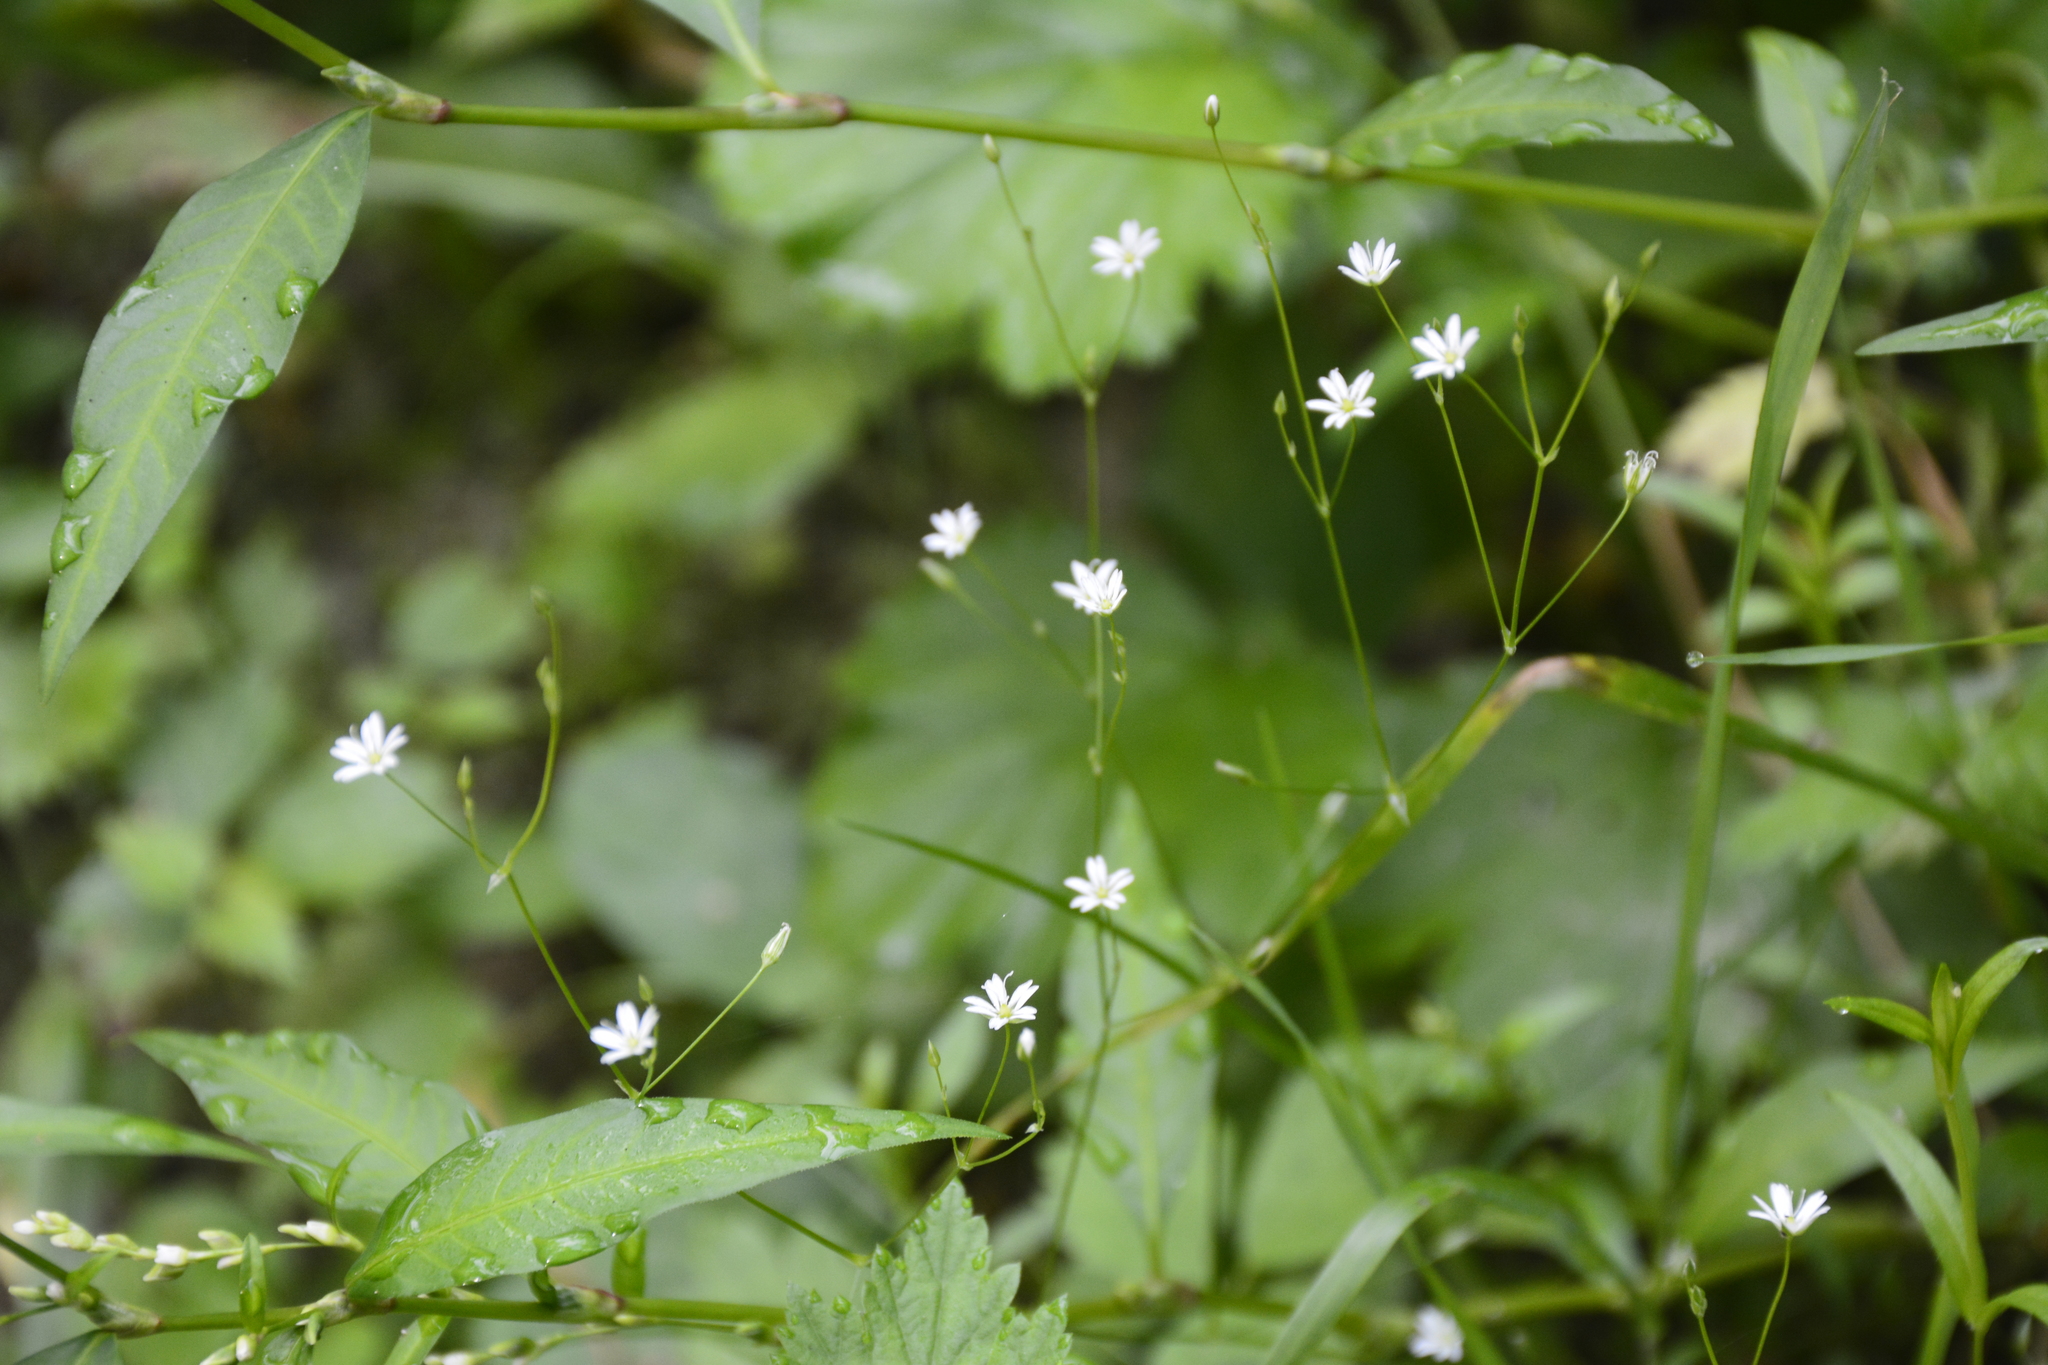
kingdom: Plantae
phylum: Tracheophyta
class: Magnoliopsida
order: Caryophyllales
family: Caryophyllaceae
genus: Stellaria
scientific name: Stellaria graminea
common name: Grass-like starwort
